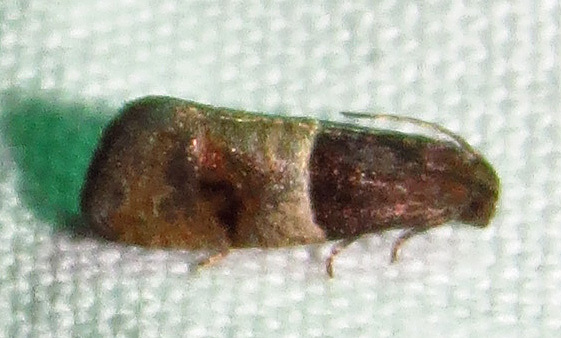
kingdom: Animalia
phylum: Arthropoda
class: Insecta
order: Lepidoptera
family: Tortricidae
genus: Larisa
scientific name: Larisa subsolana
